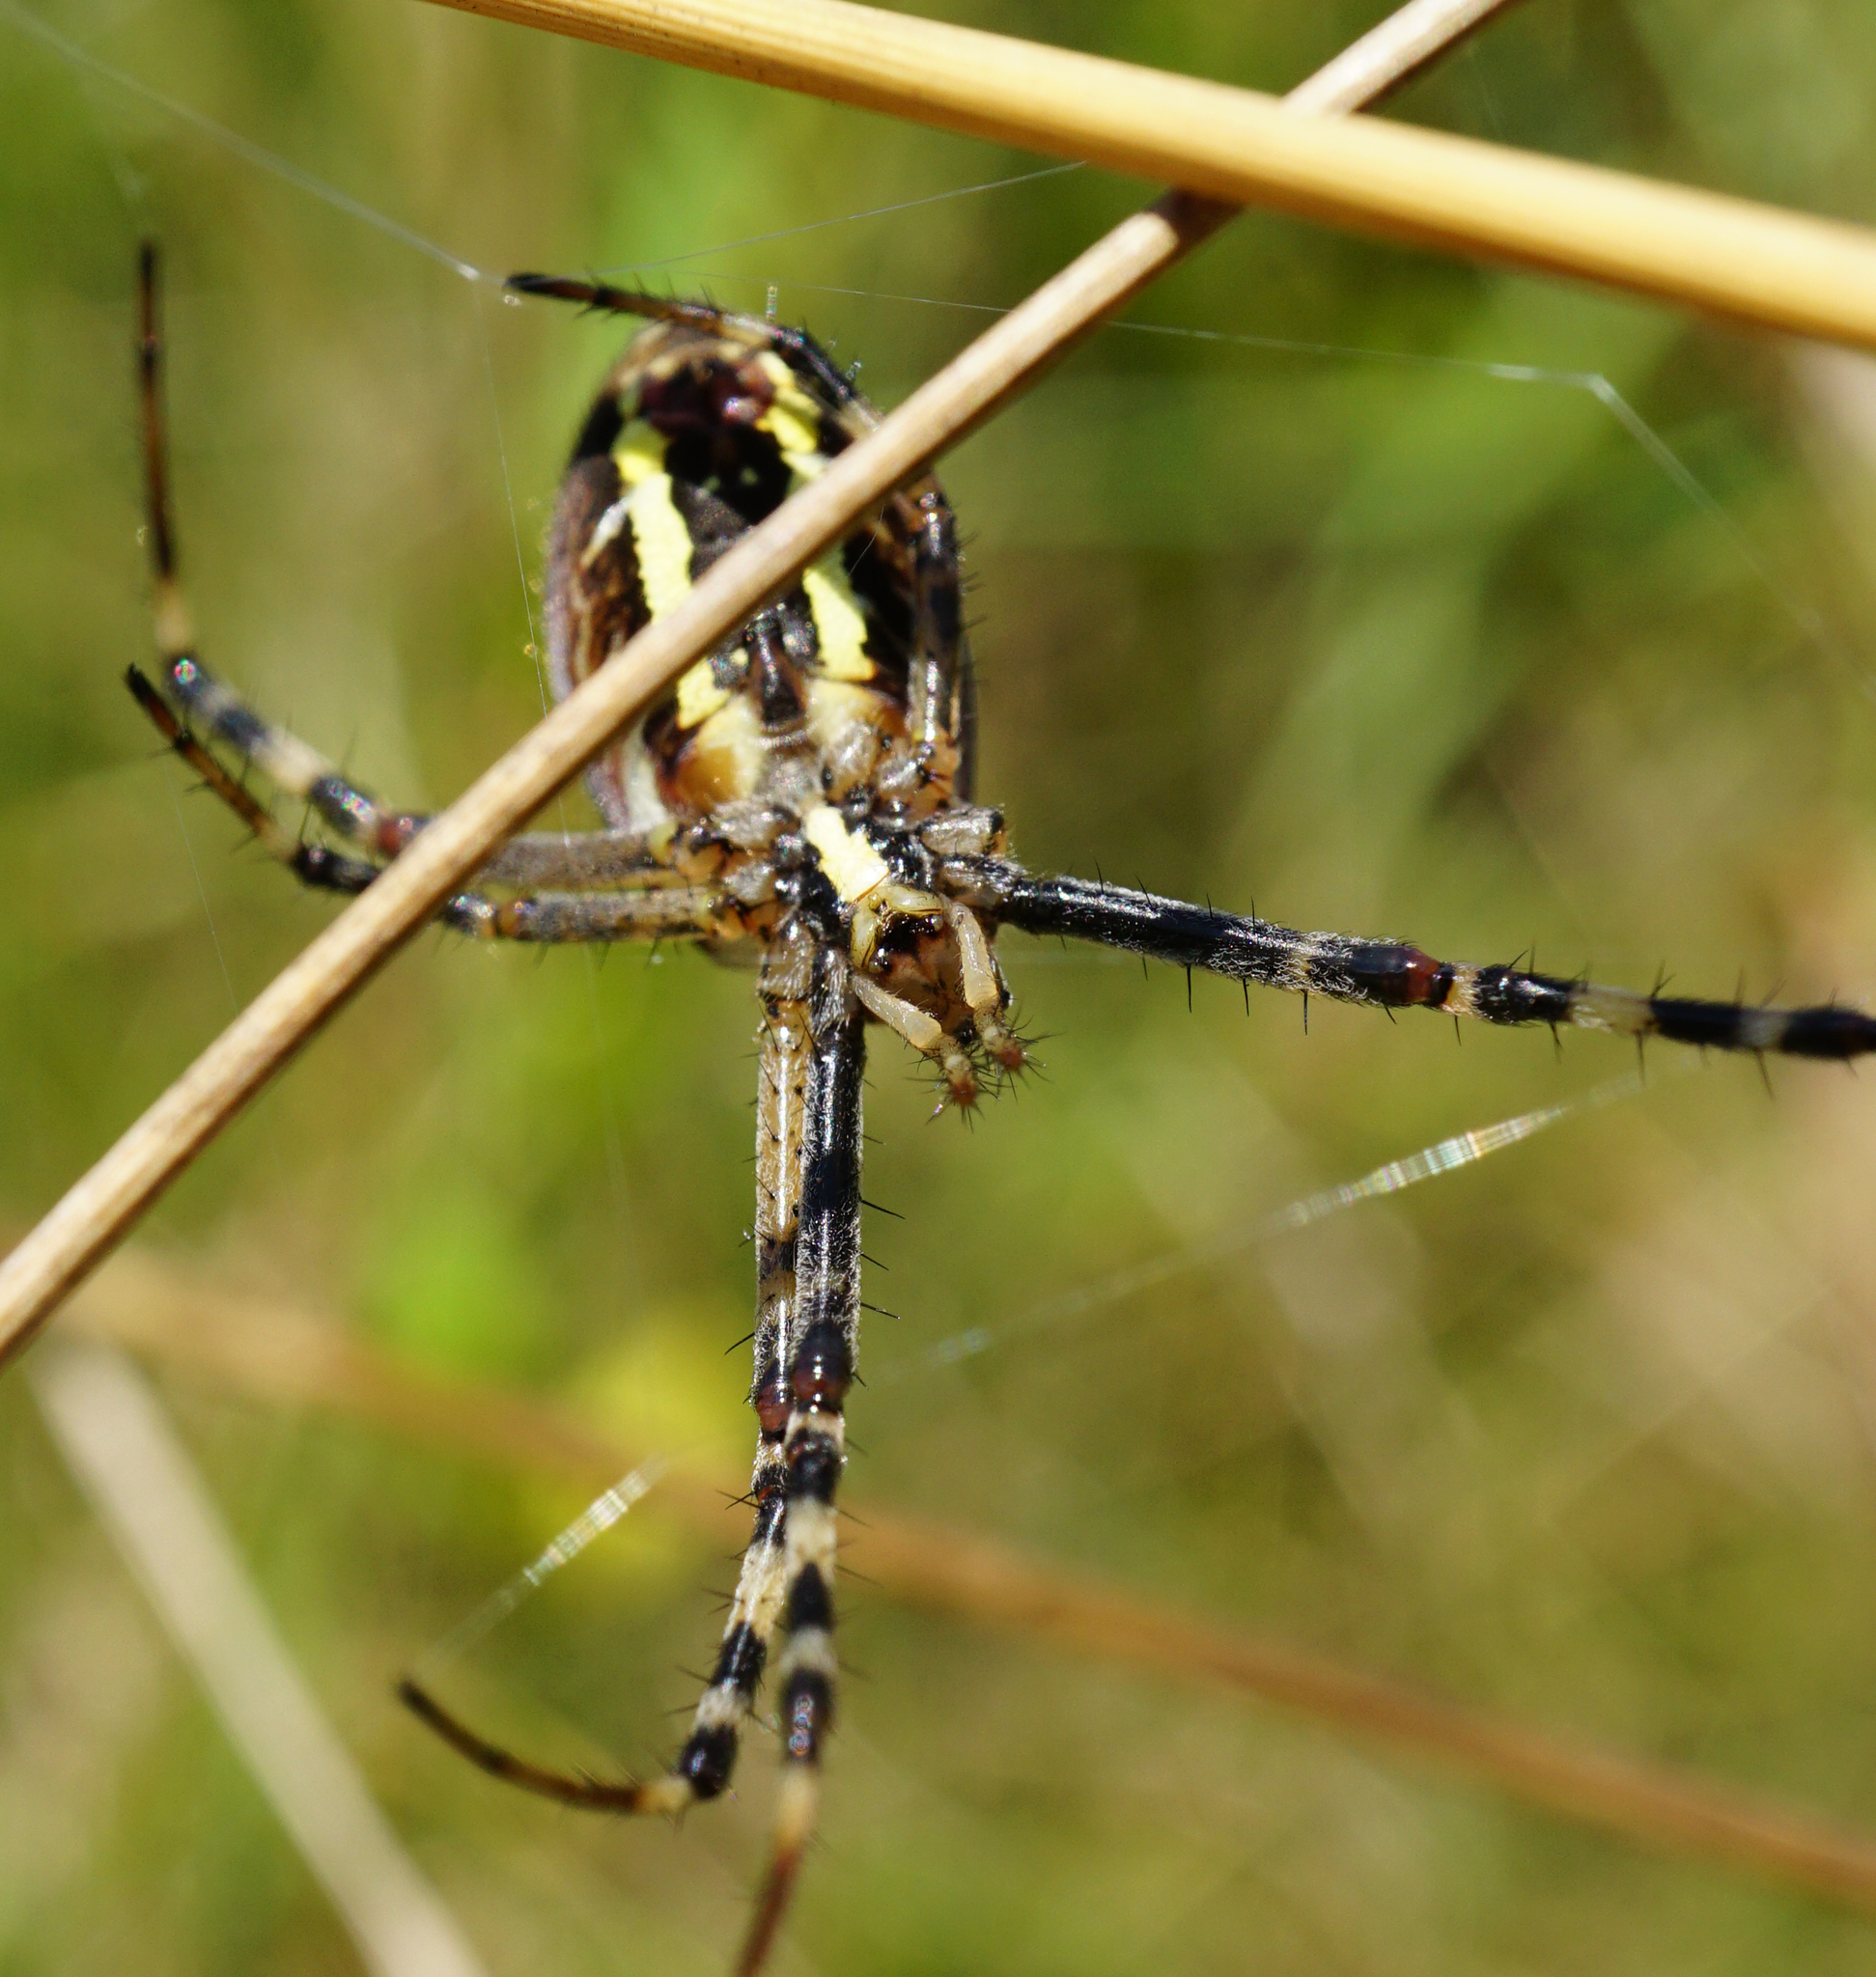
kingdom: Animalia
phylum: Arthropoda
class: Arachnida
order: Araneae
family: Araneidae
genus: Argiope
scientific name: Argiope bruennichi
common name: Wasp spider
